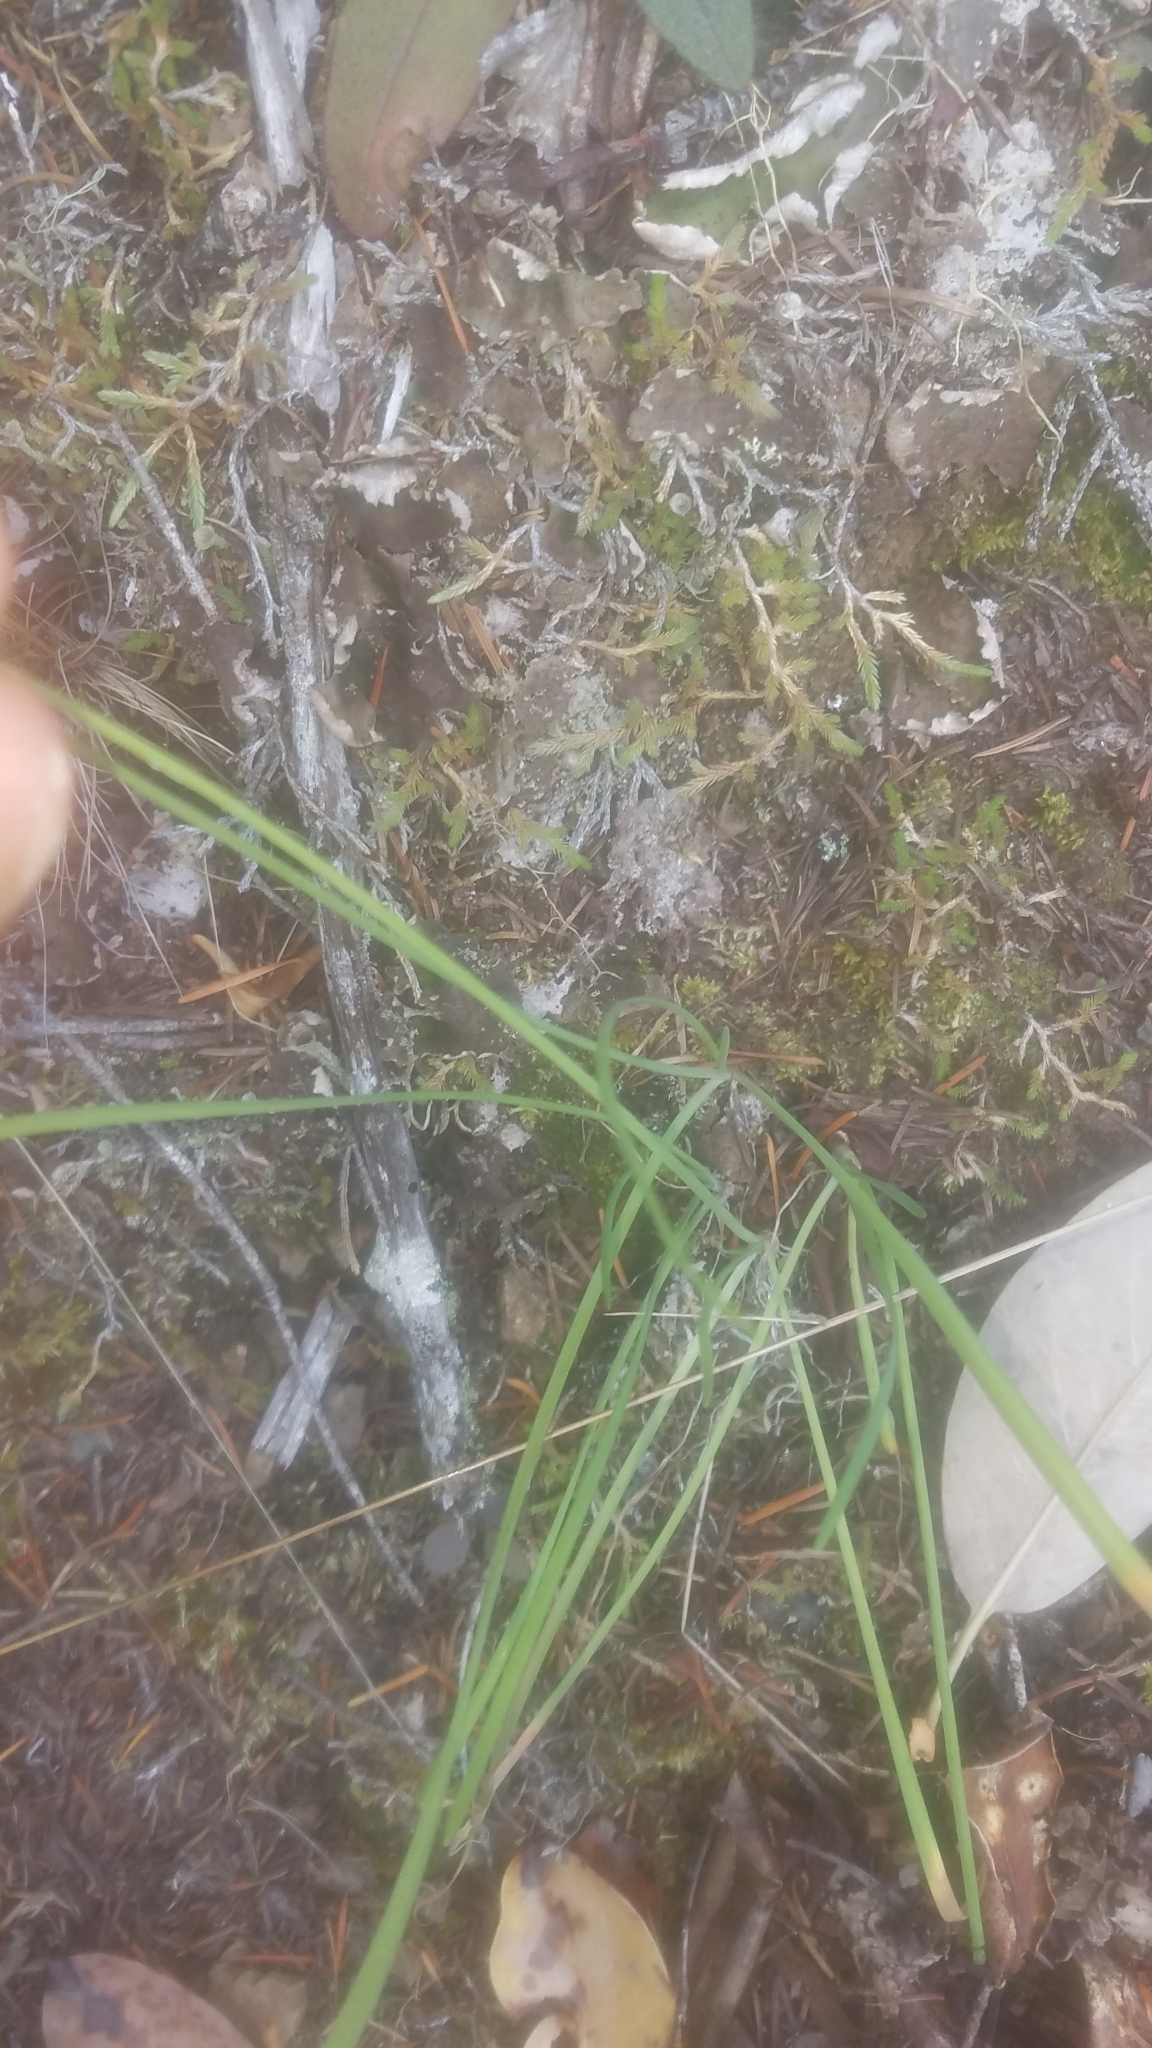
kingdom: Plantae
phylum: Tracheophyta
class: Liliopsida
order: Asparagales
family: Amaryllidaceae
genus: Allium
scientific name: Allium cernuum
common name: Nodding onion
